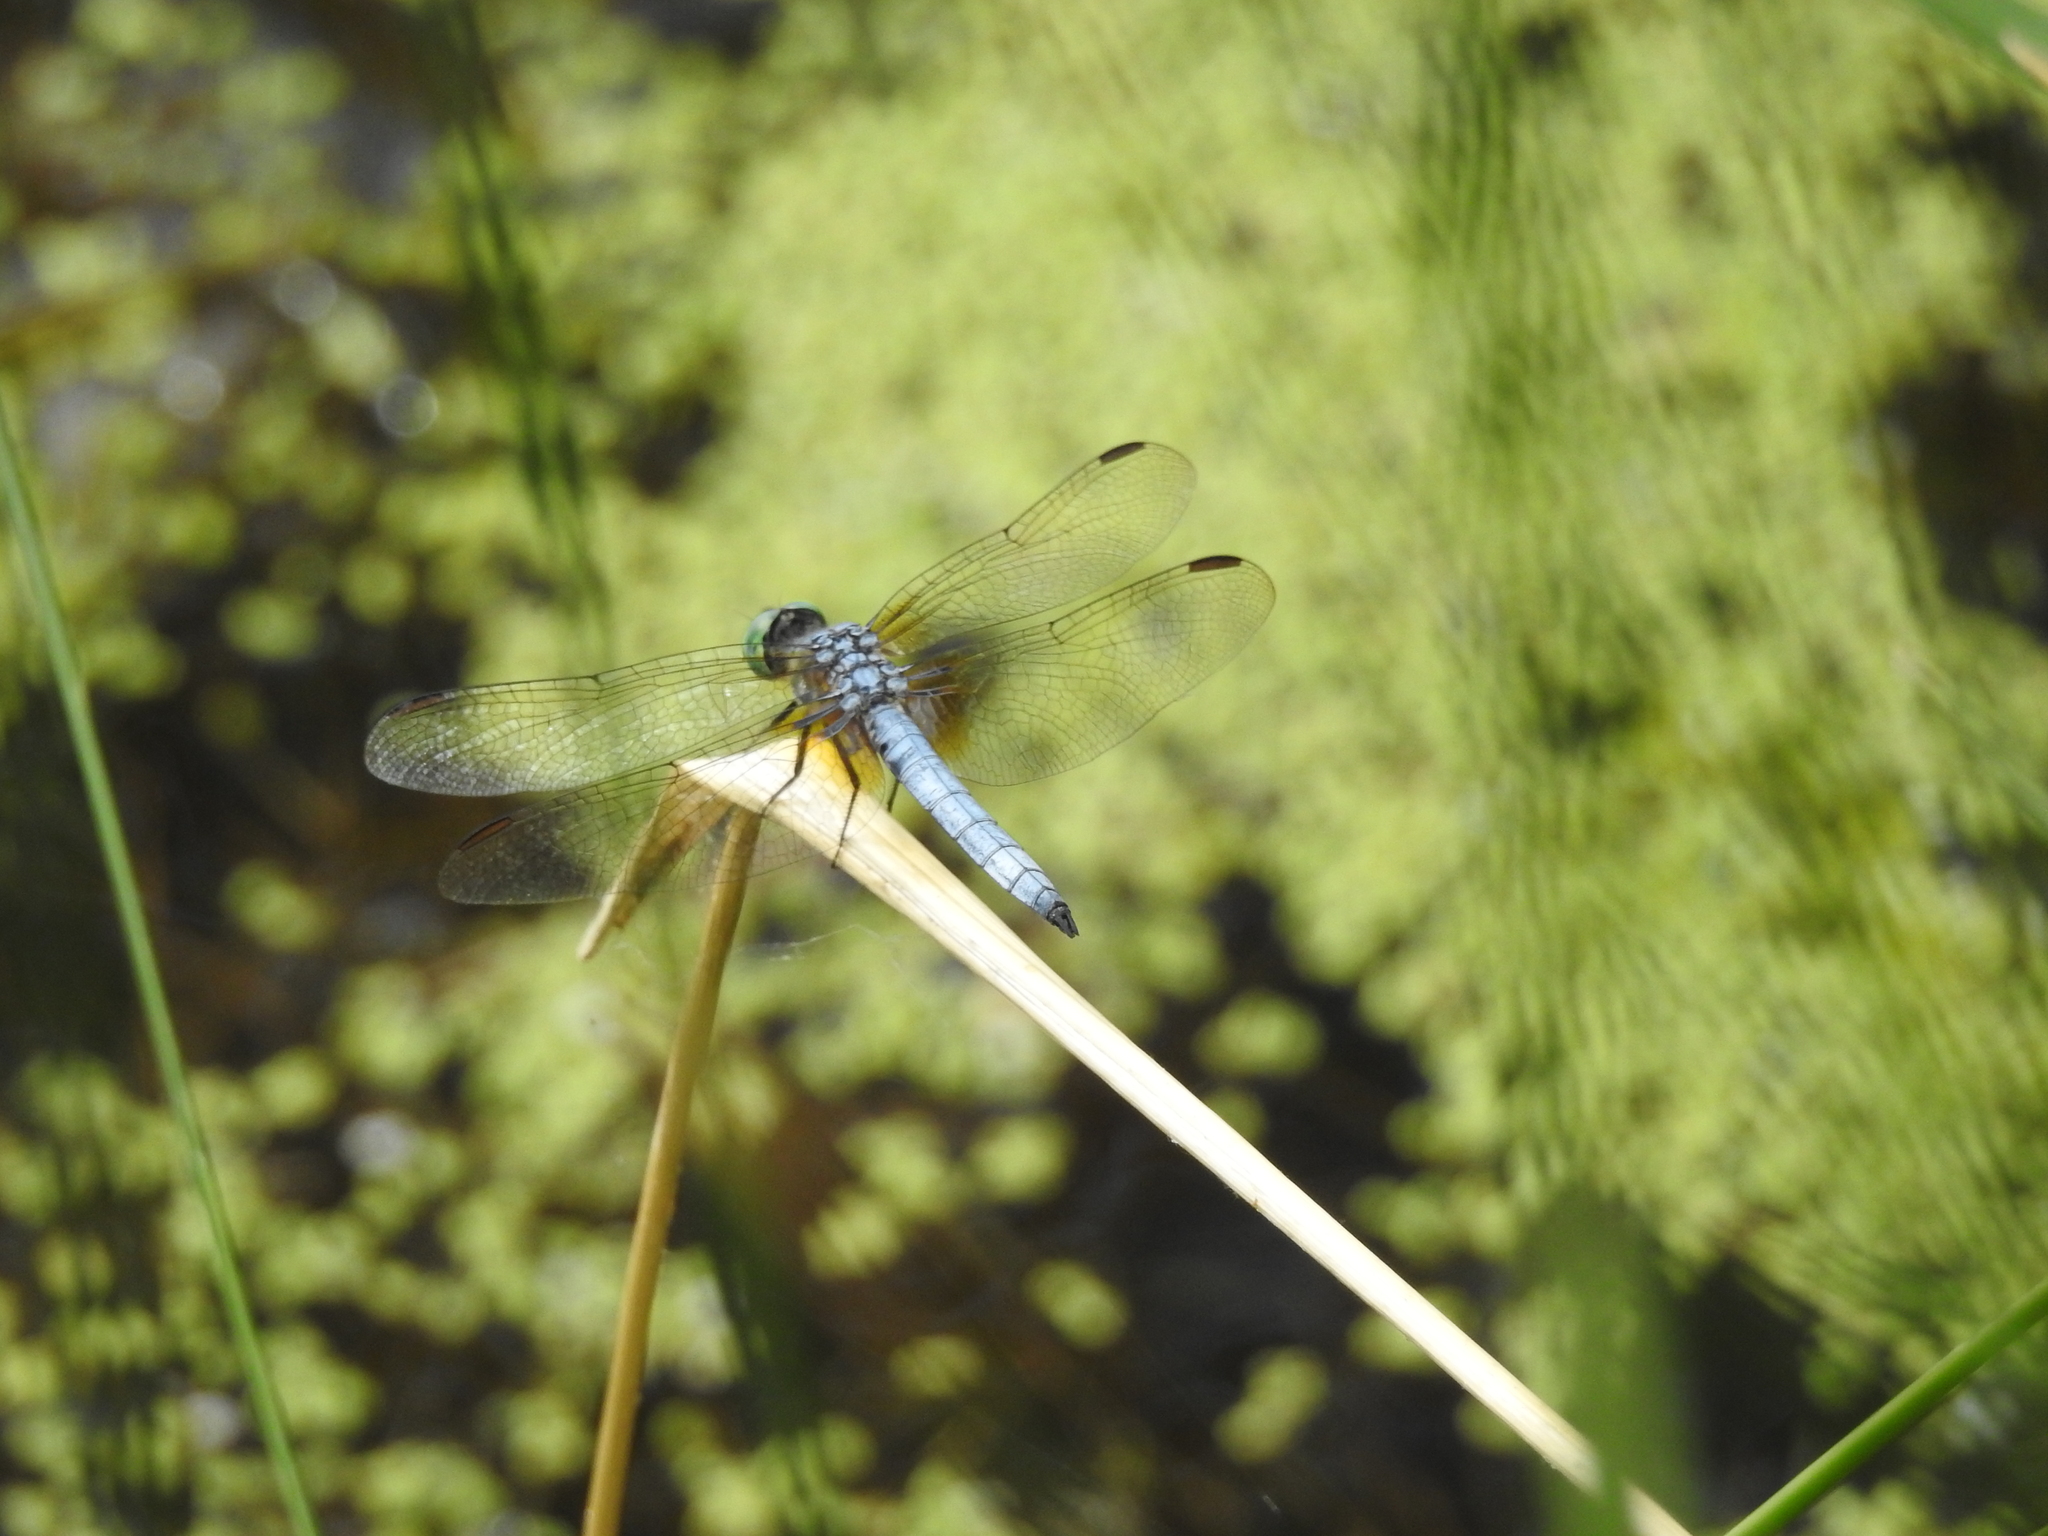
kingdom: Animalia
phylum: Arthropoda
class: Insecta
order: Odonata
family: Libellulidae
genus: Pachydiplax
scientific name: Pachydiplax longipennis
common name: Blue dasher
